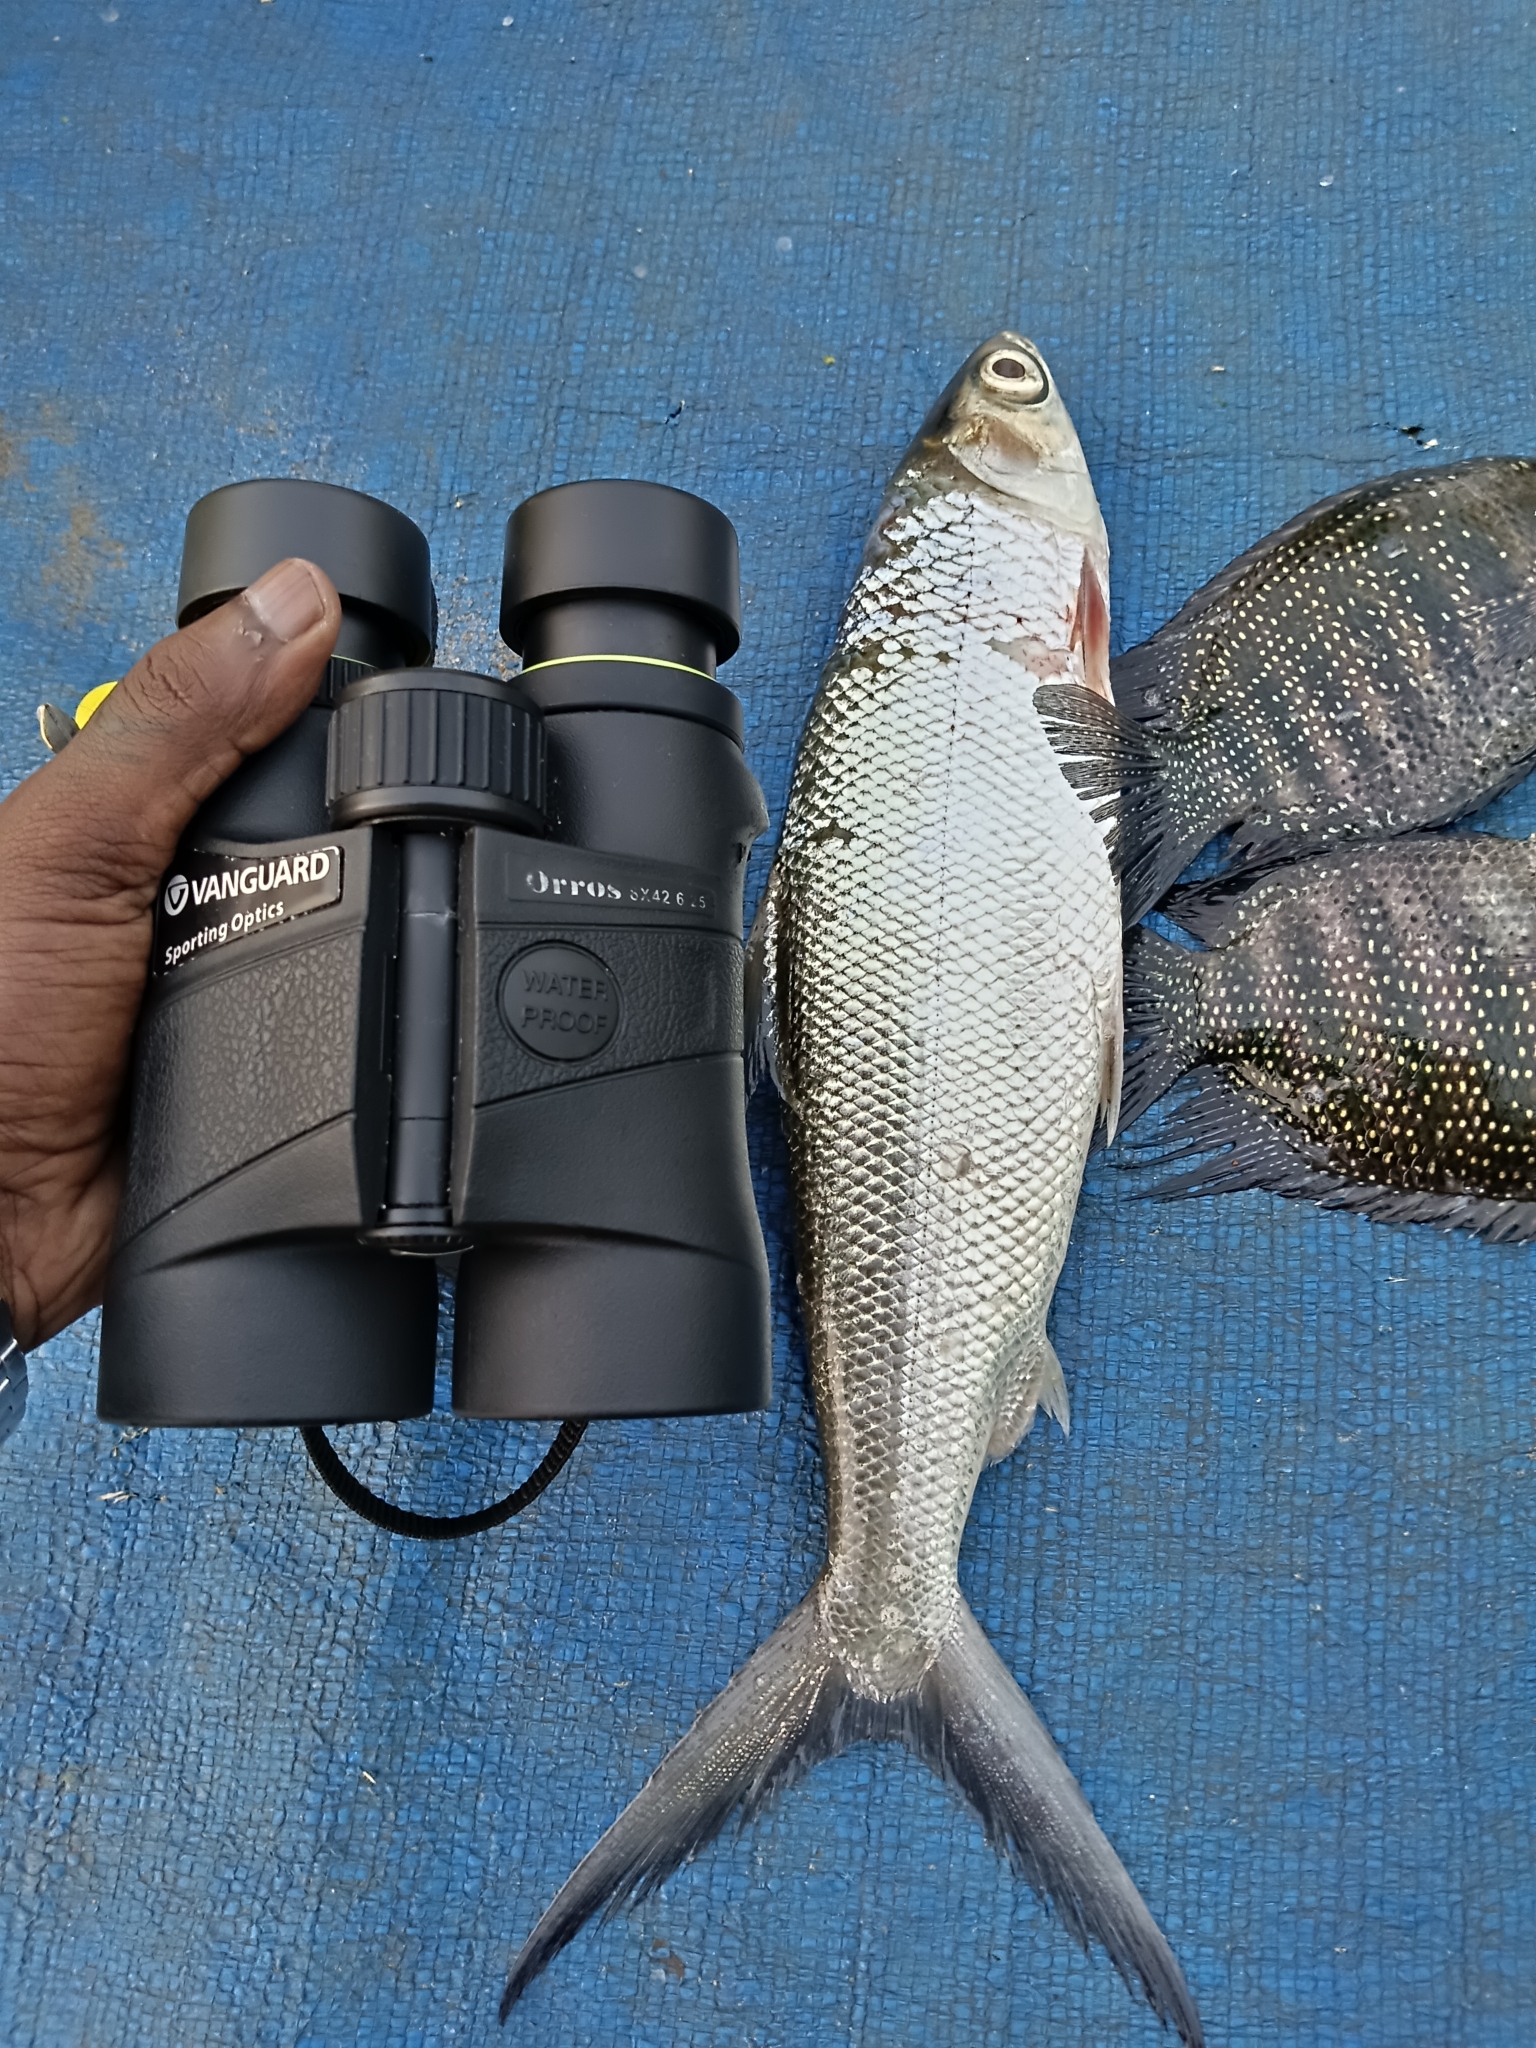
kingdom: Animalia
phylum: Chordata
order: Gonorynchiformes
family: Chanidae
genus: Chanos
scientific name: Chanos chanos
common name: Milkfish
